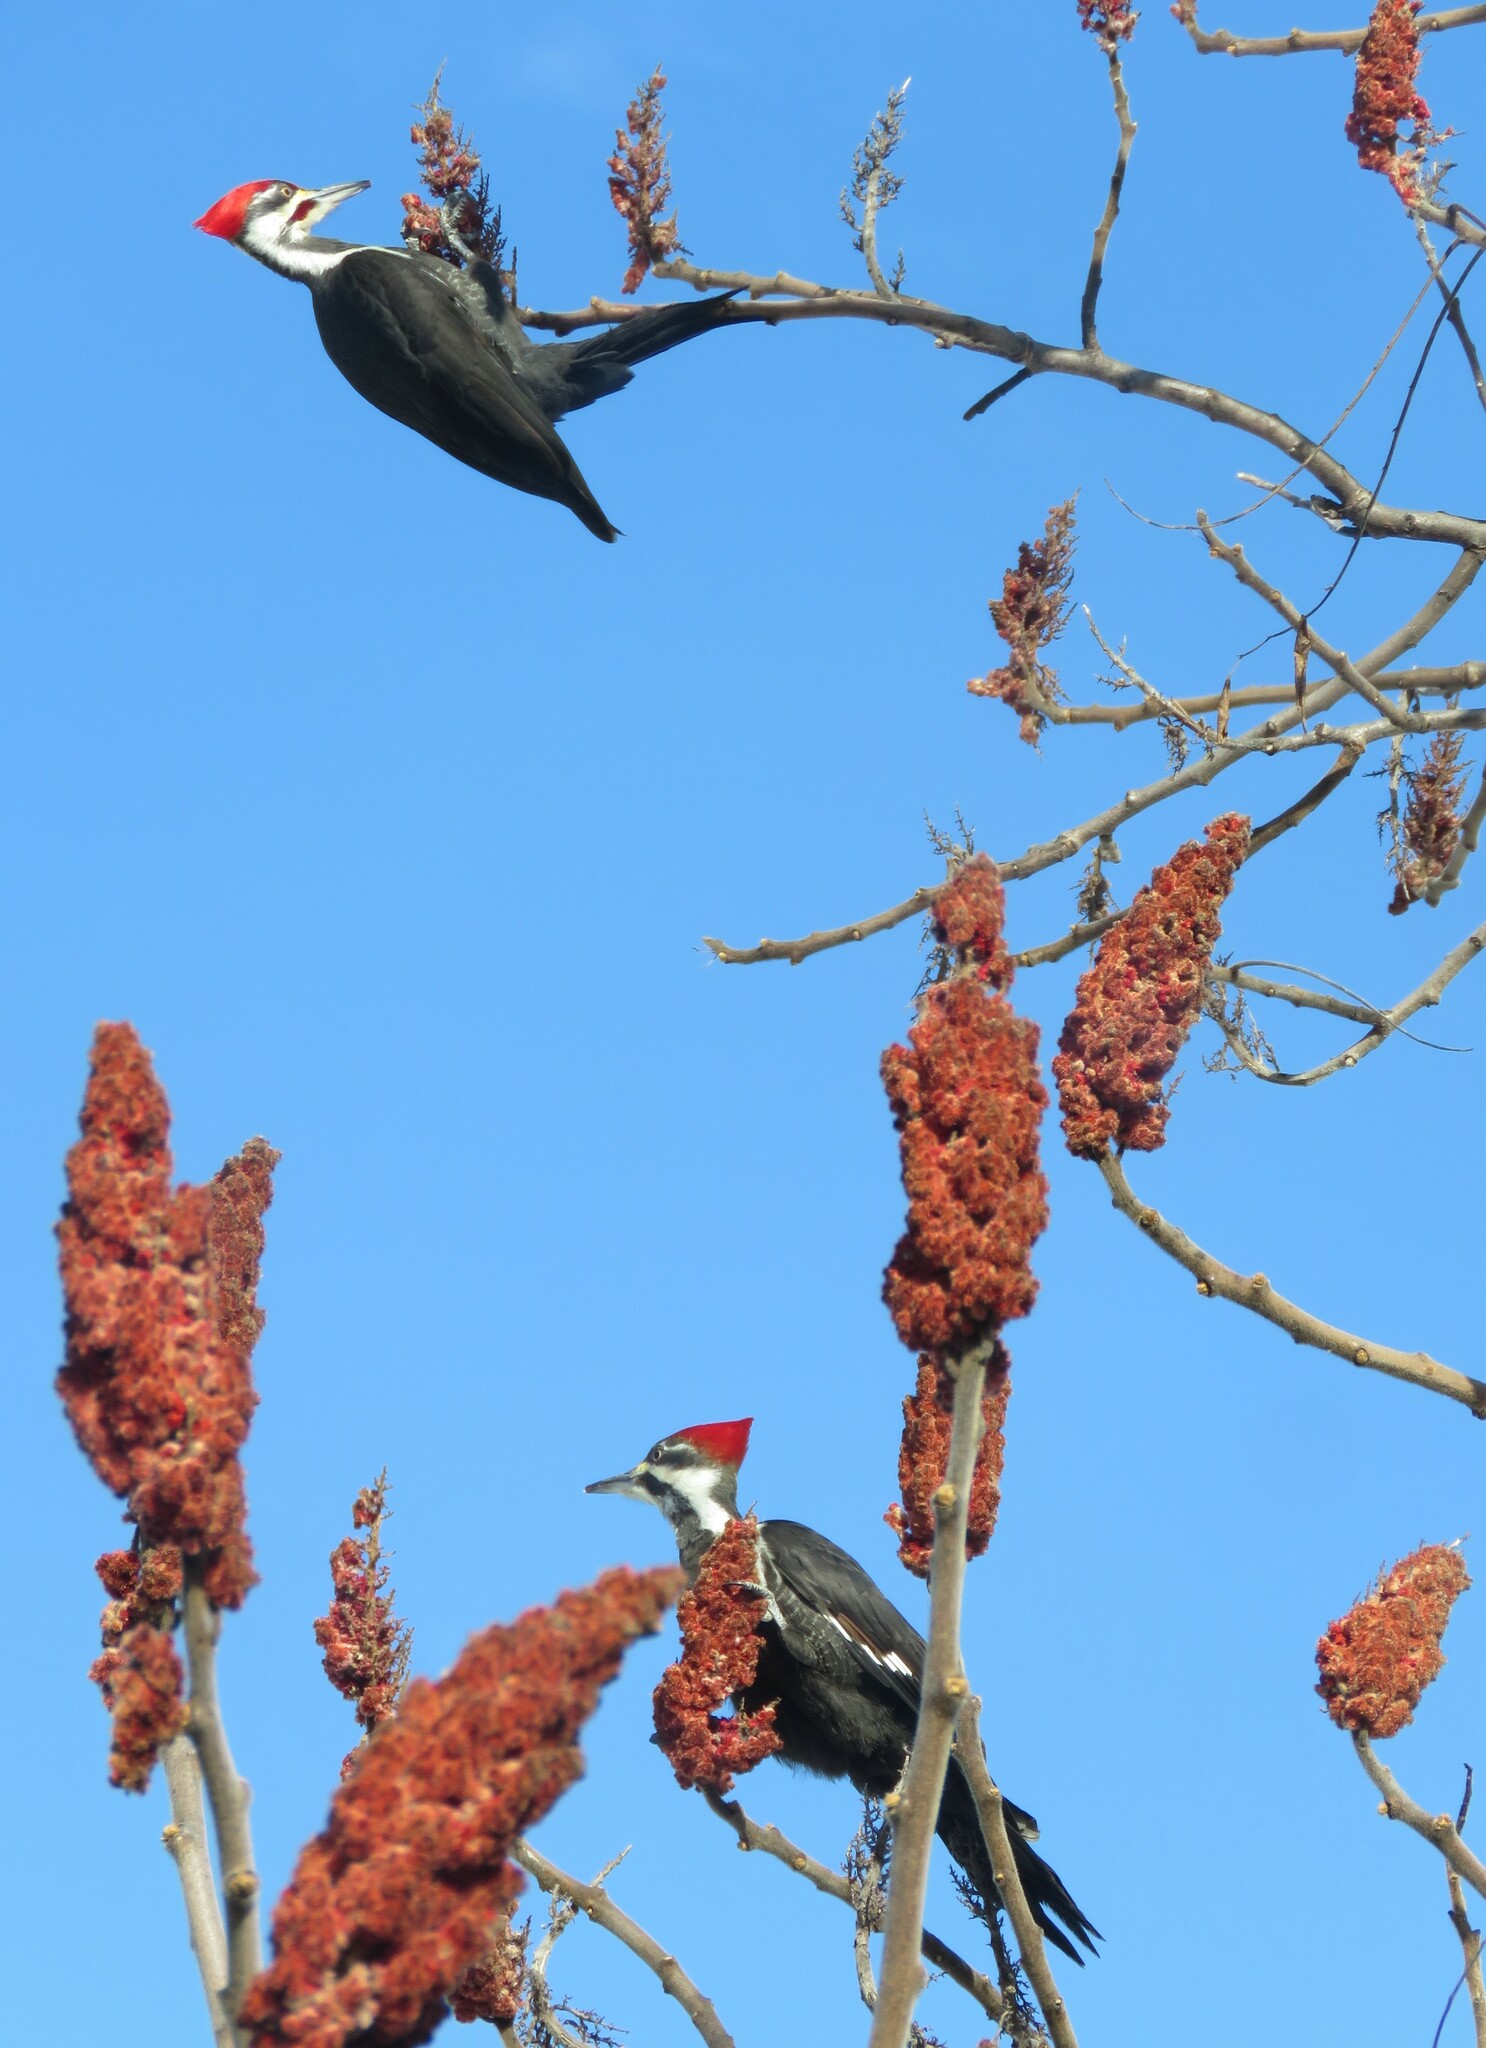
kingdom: Animalia
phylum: Chordata
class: Aves
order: Piciformes
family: Picidae
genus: Dryocopus
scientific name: Dryocopus pileatus
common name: Pileated woodpecker
